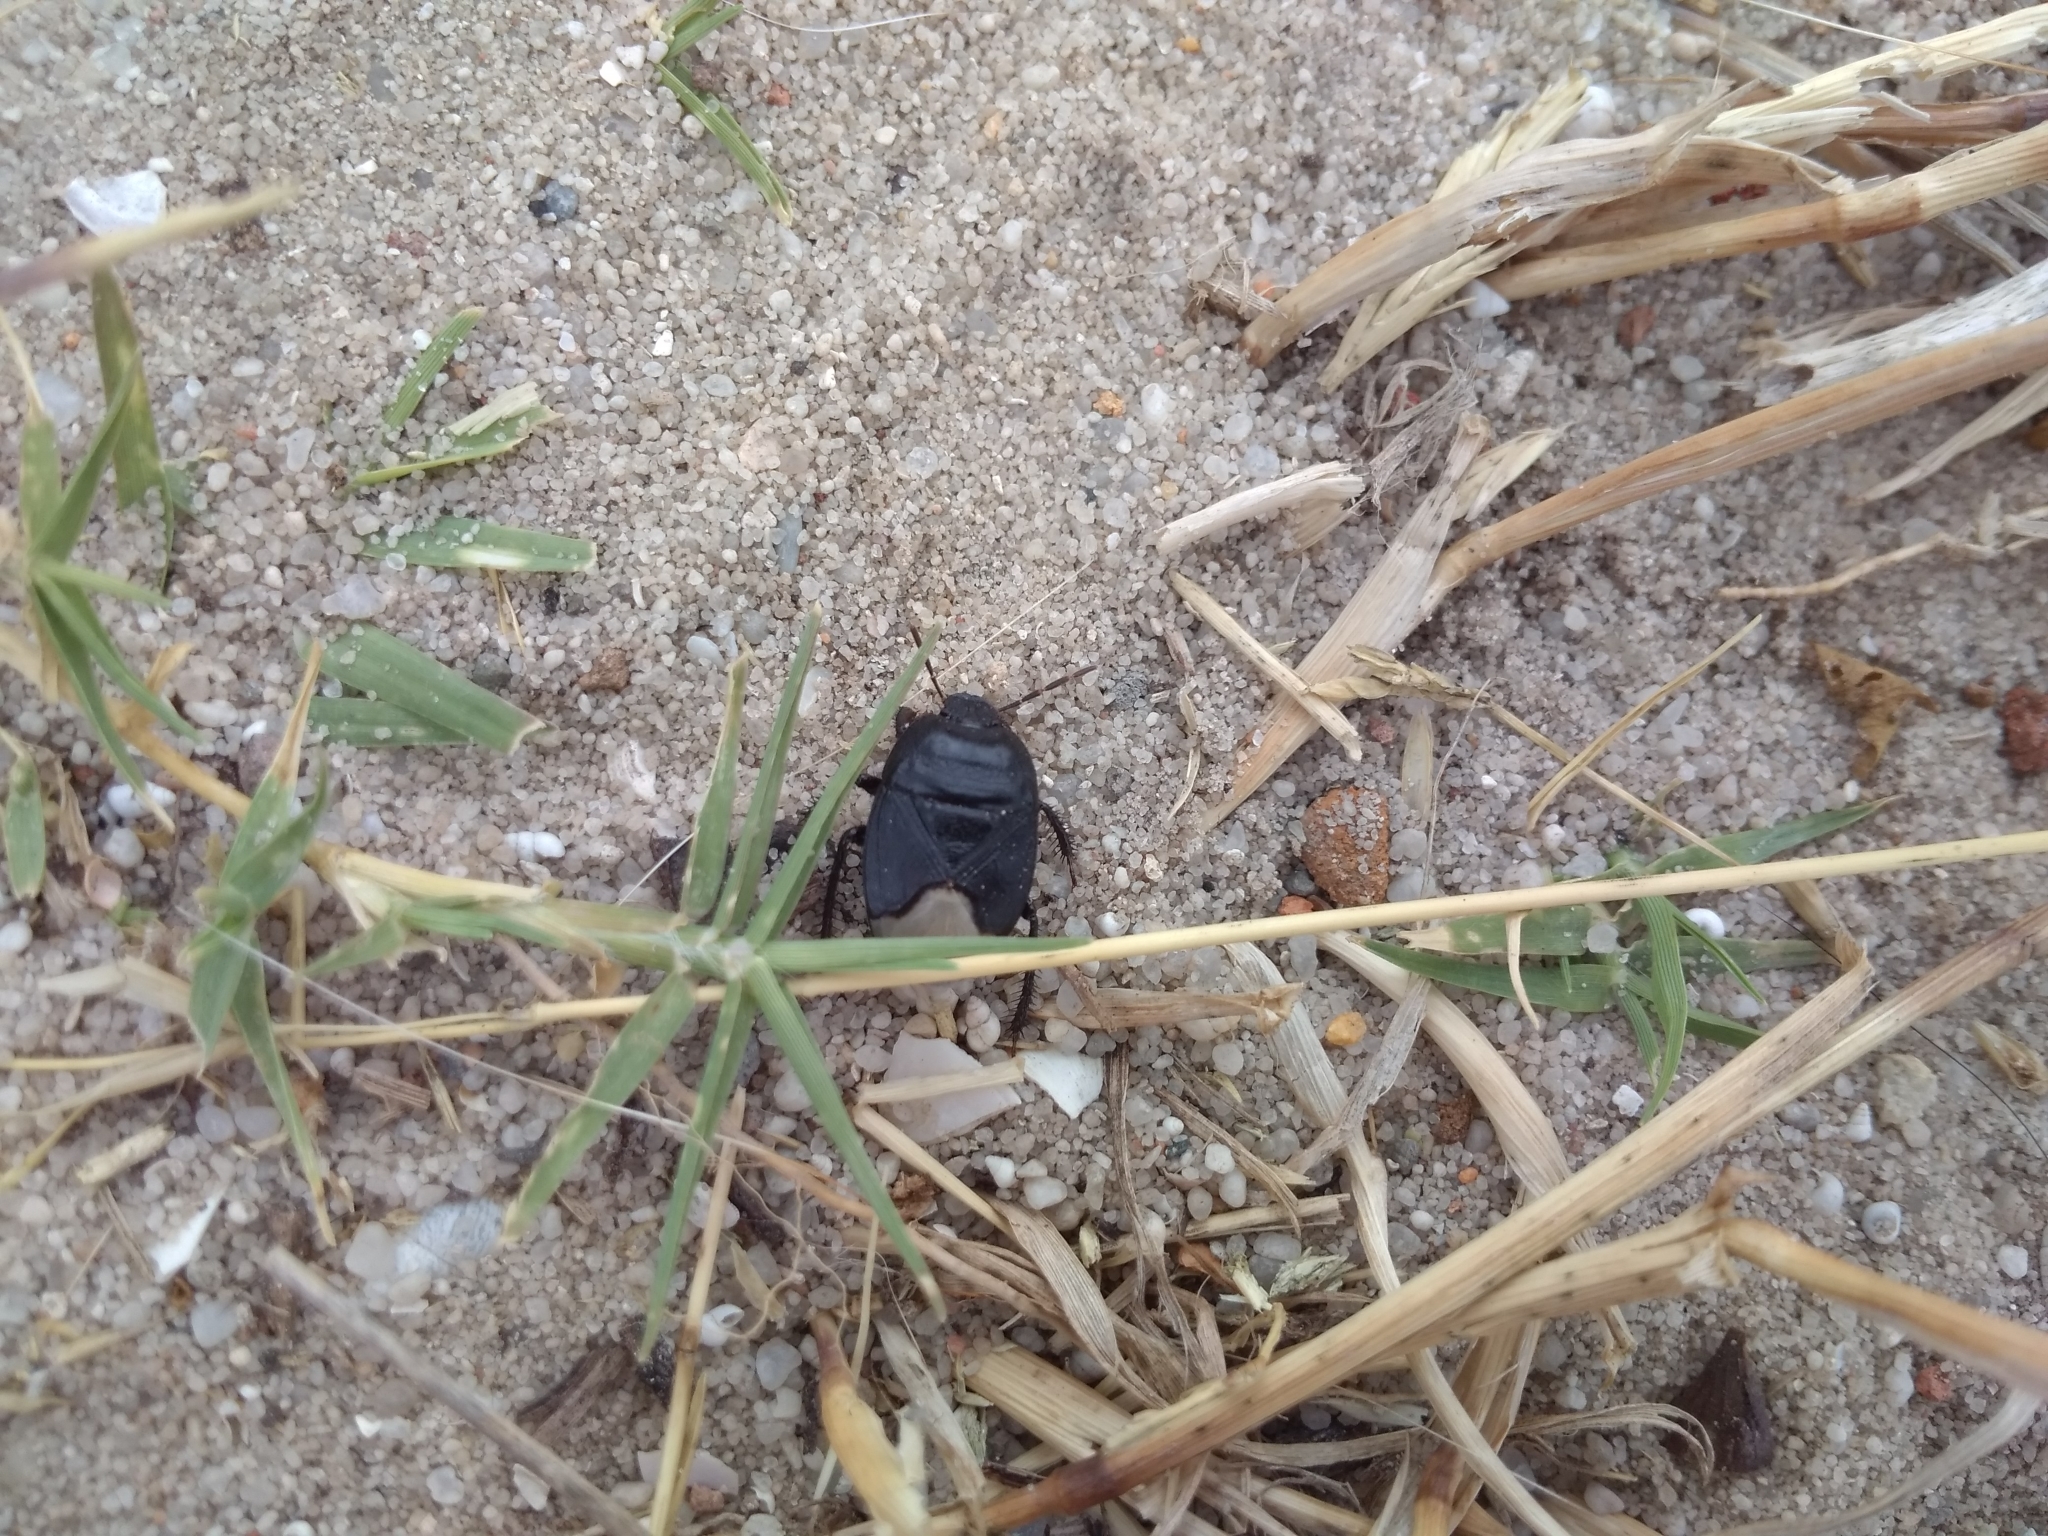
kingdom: Animalia
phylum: Arthropoda
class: Insecta
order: Hemiptera
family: Cydnidae
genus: Cydnus
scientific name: Cydnus aterrimus
